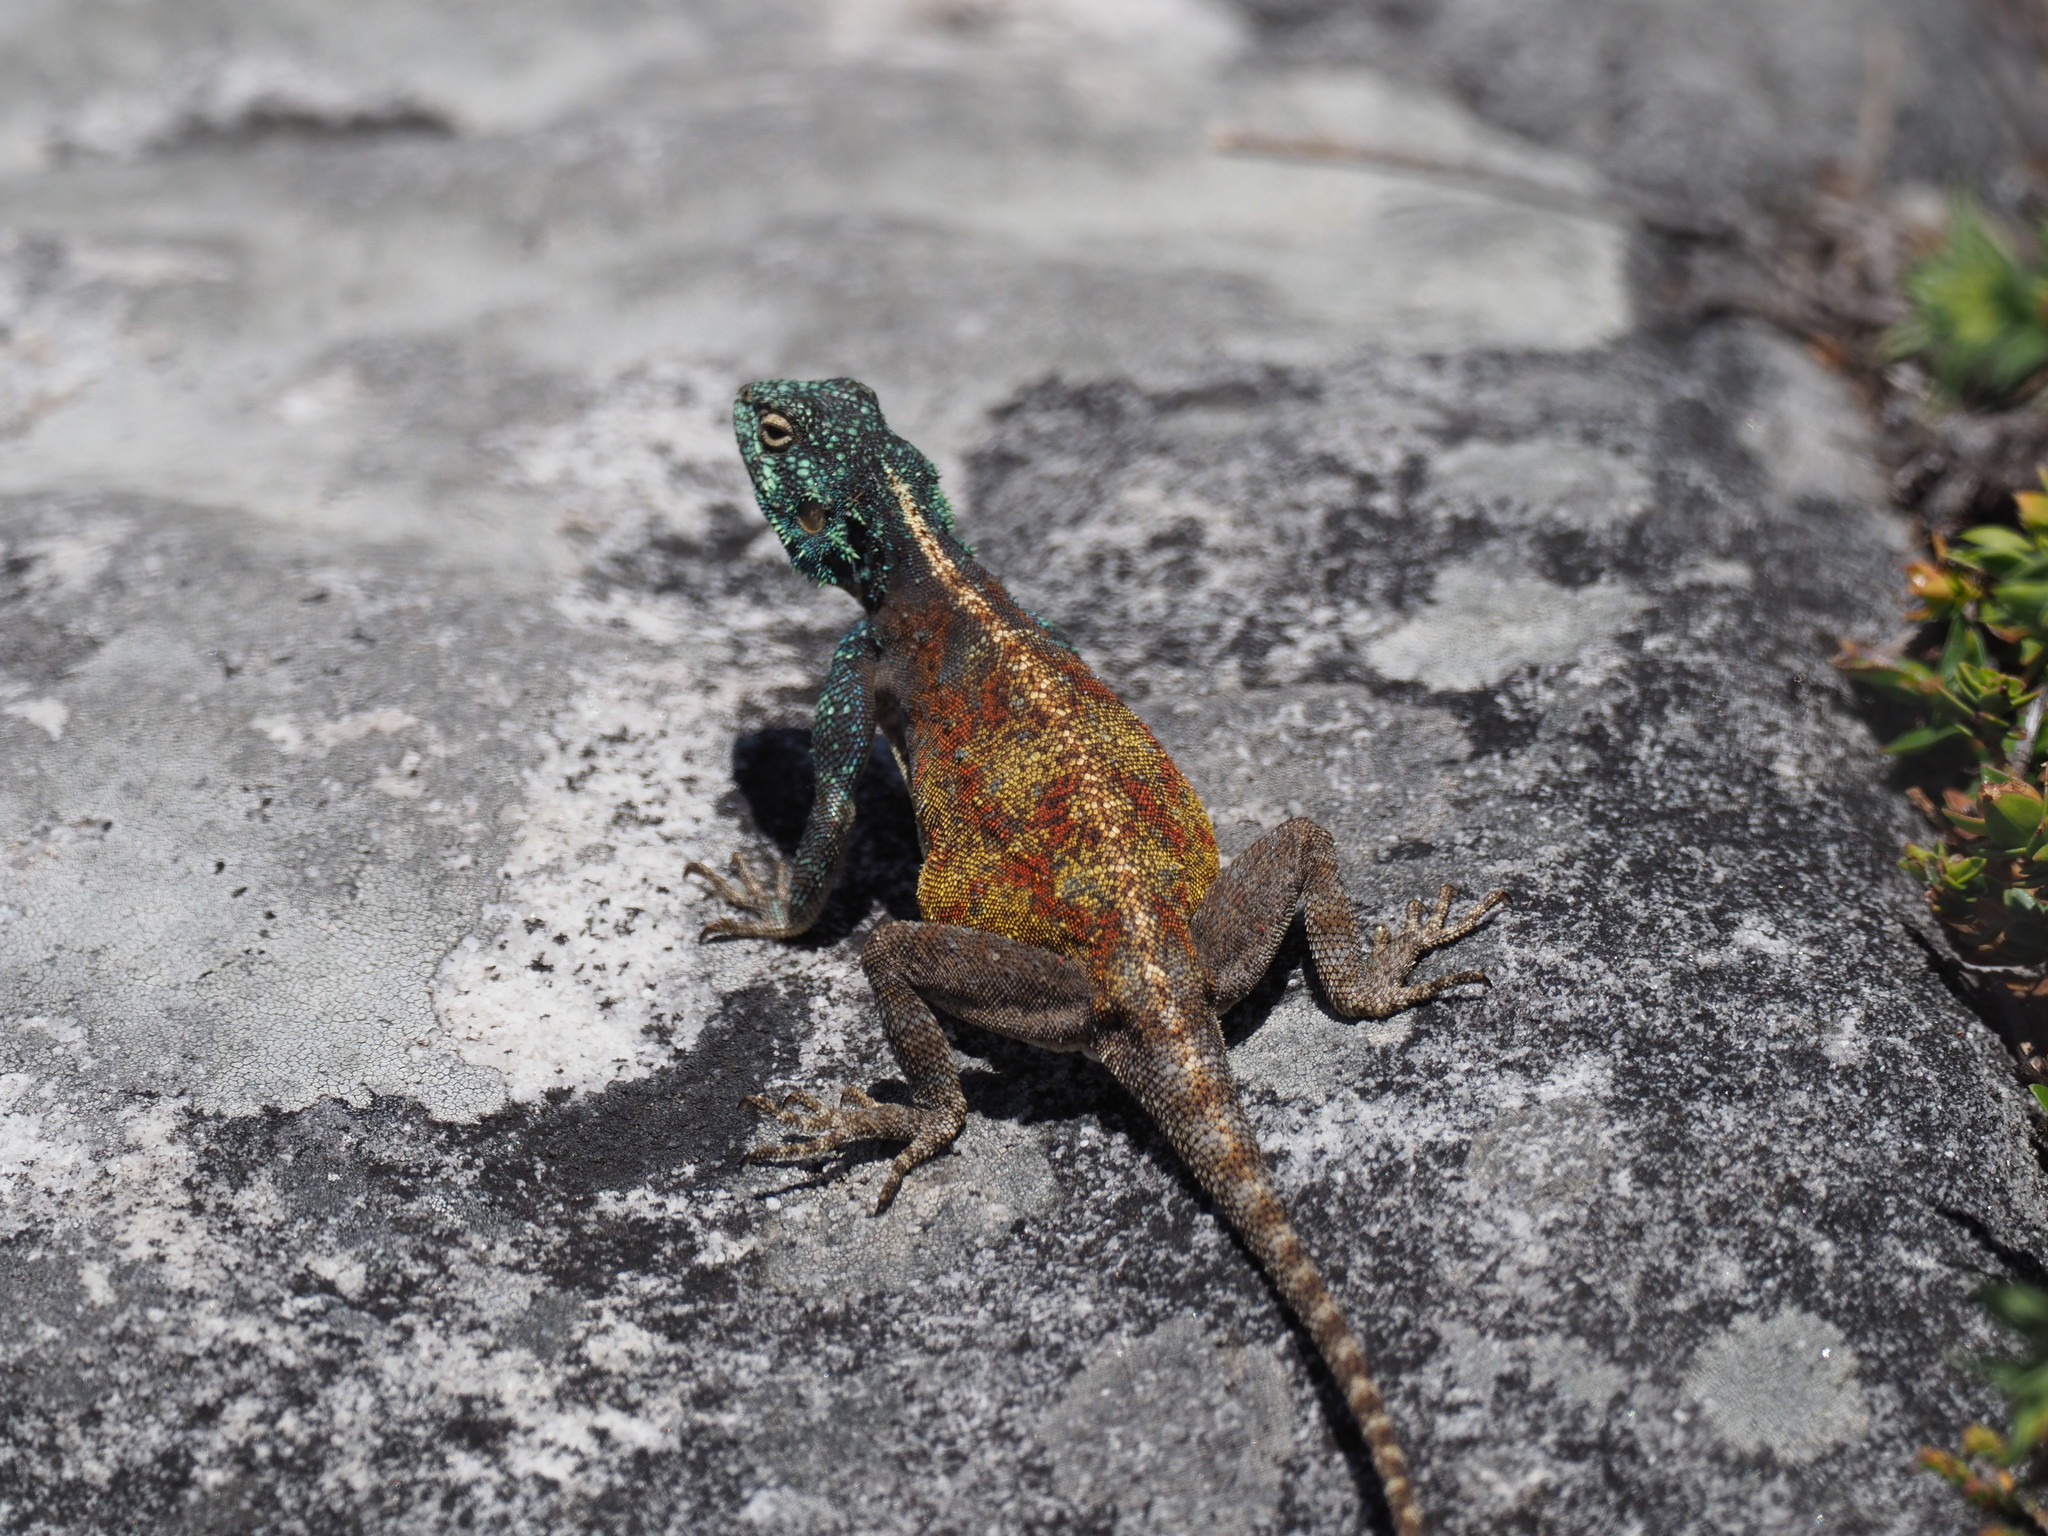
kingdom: Animalia
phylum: Chordata
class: Squamata
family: Agamidae
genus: Agama
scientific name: Agama atra
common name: Southern african rock agama
